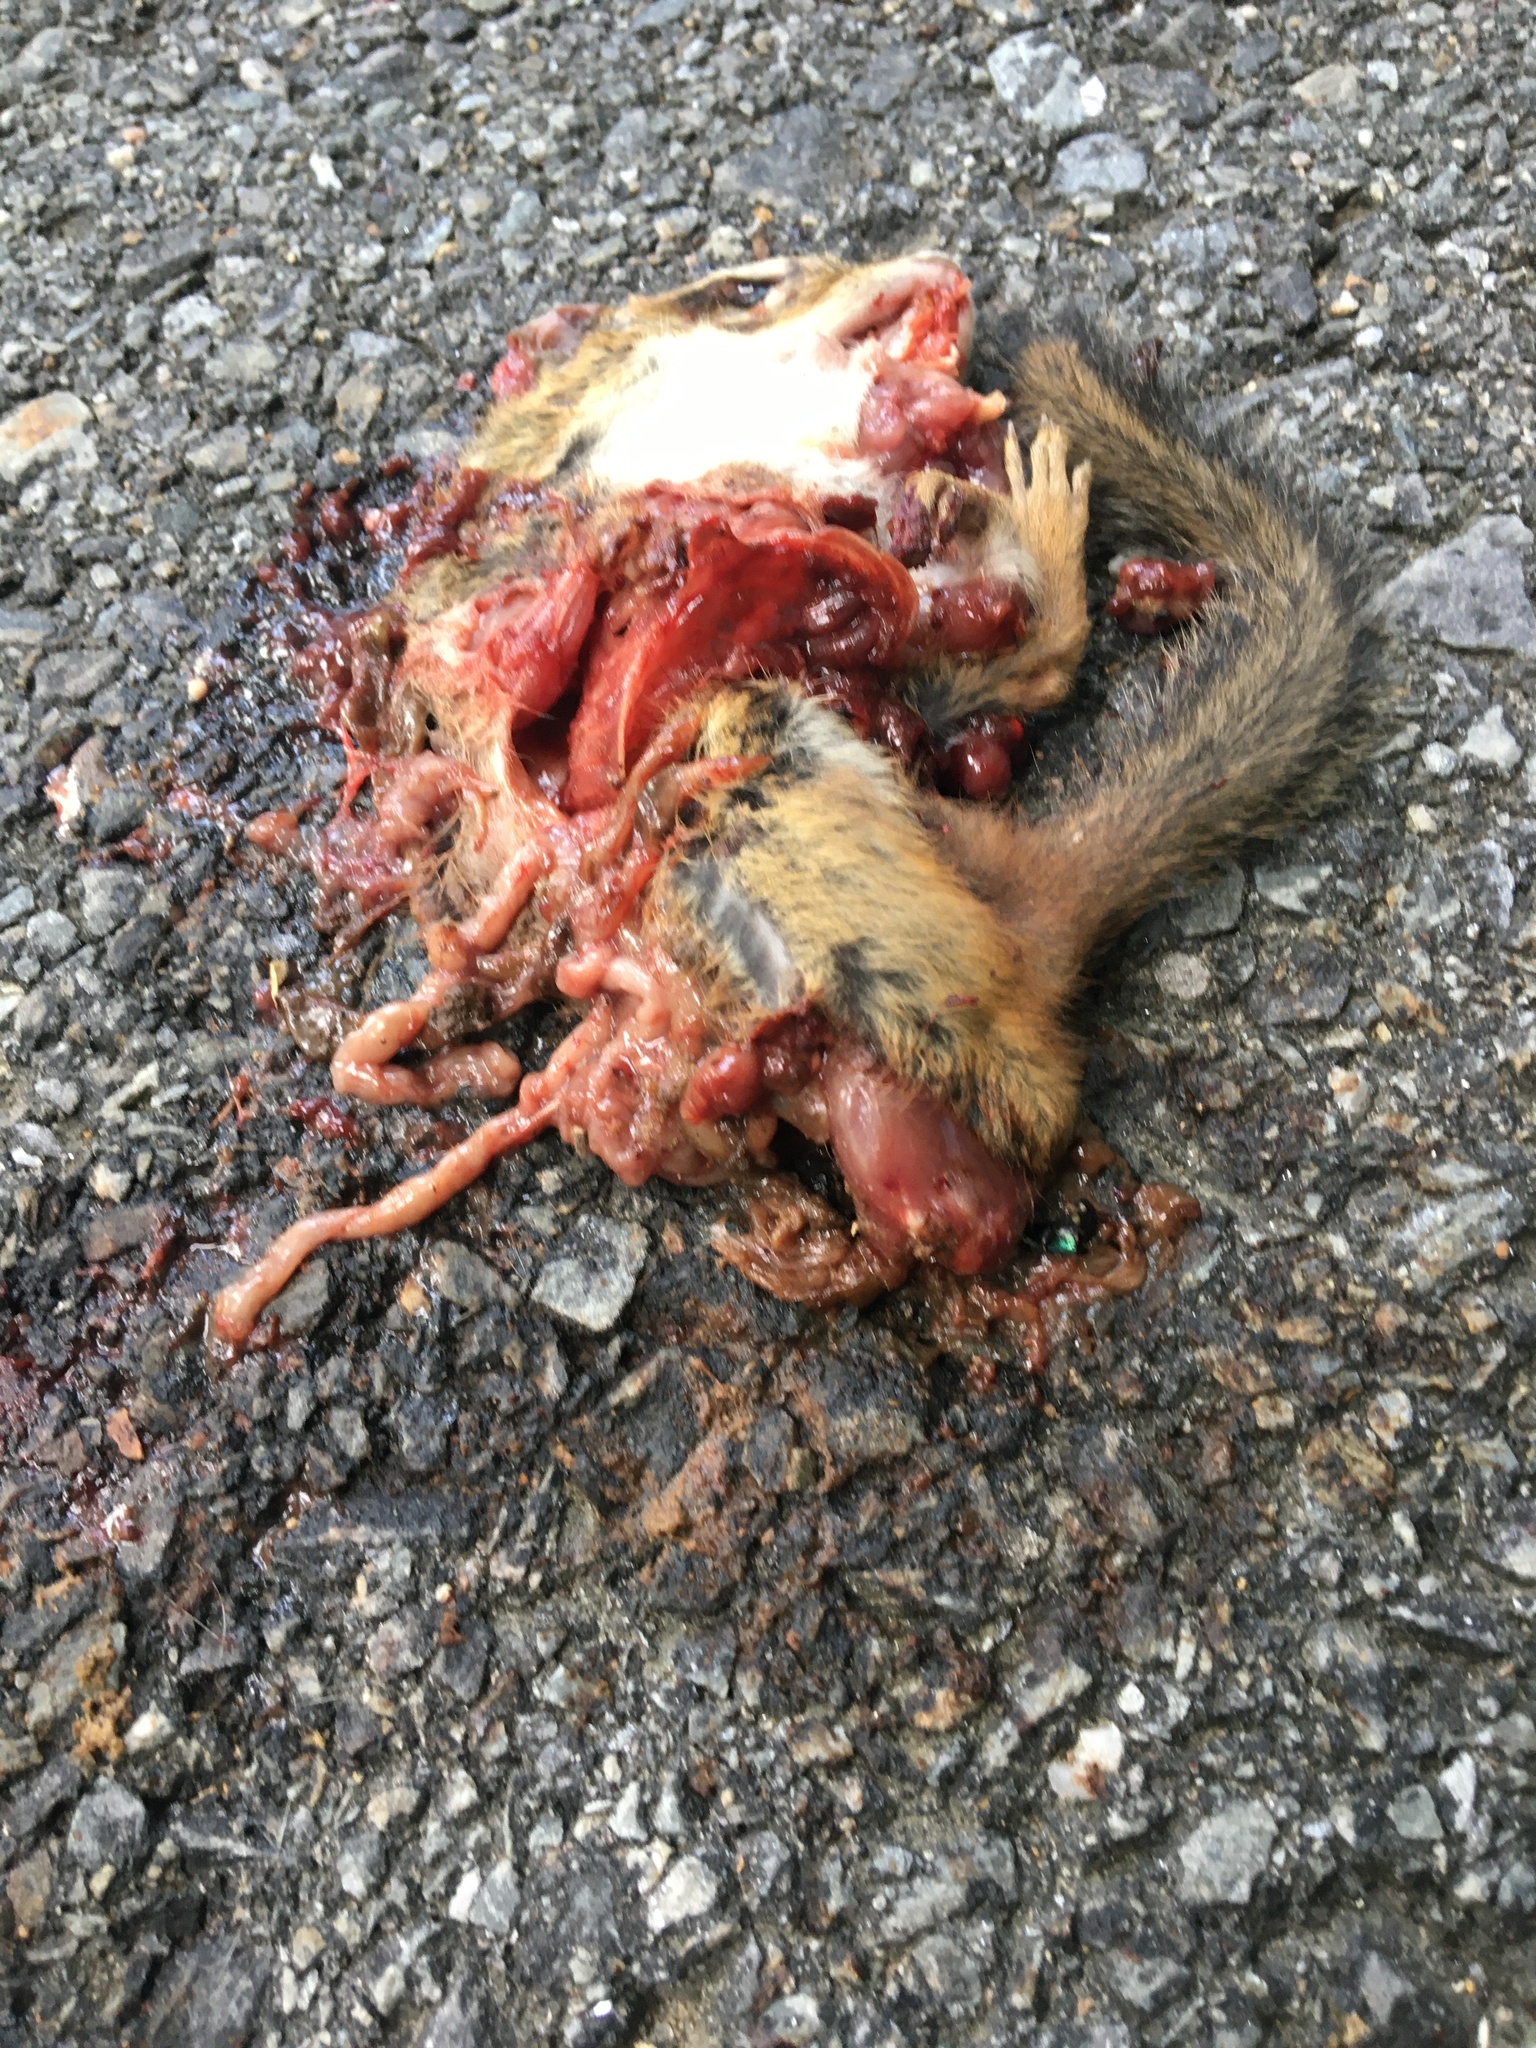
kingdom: Animalia
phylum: Chordata
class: Mammalia
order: Rodentia
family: Sciuridae
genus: Tamias
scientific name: Tamias striatus
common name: Eastern chipmunk
